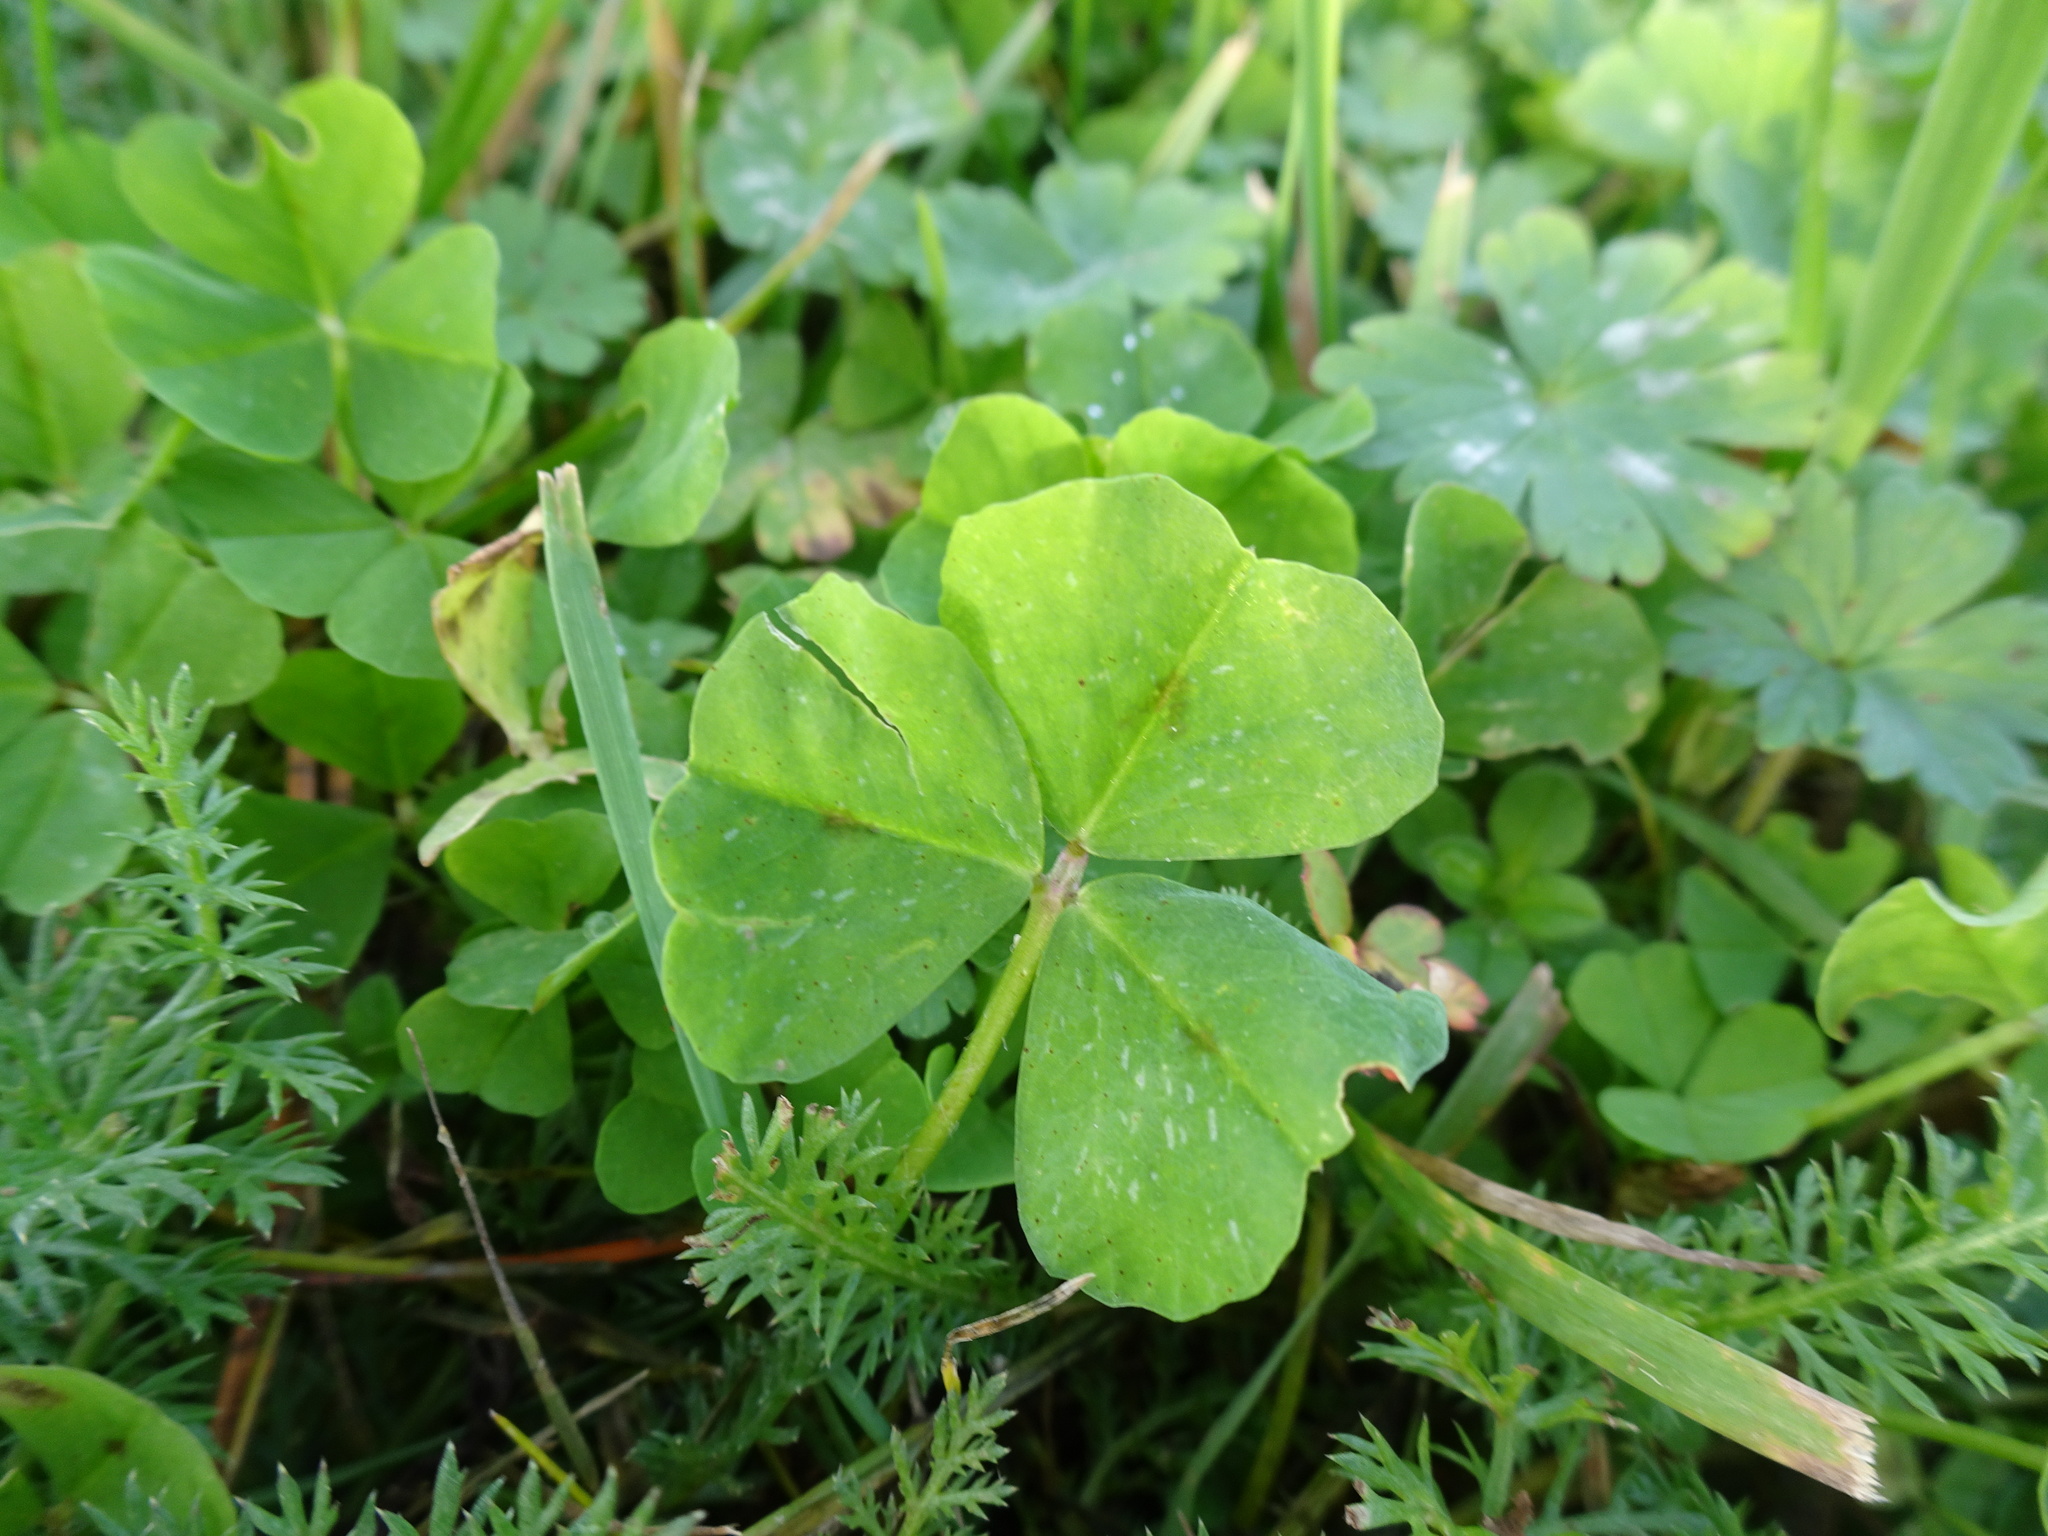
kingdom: Plantae
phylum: Tracheophyta
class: Magnoliopsida
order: Fabales
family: Fabaceae
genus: Medicago
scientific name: Medicago arabica
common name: Spotted medick
